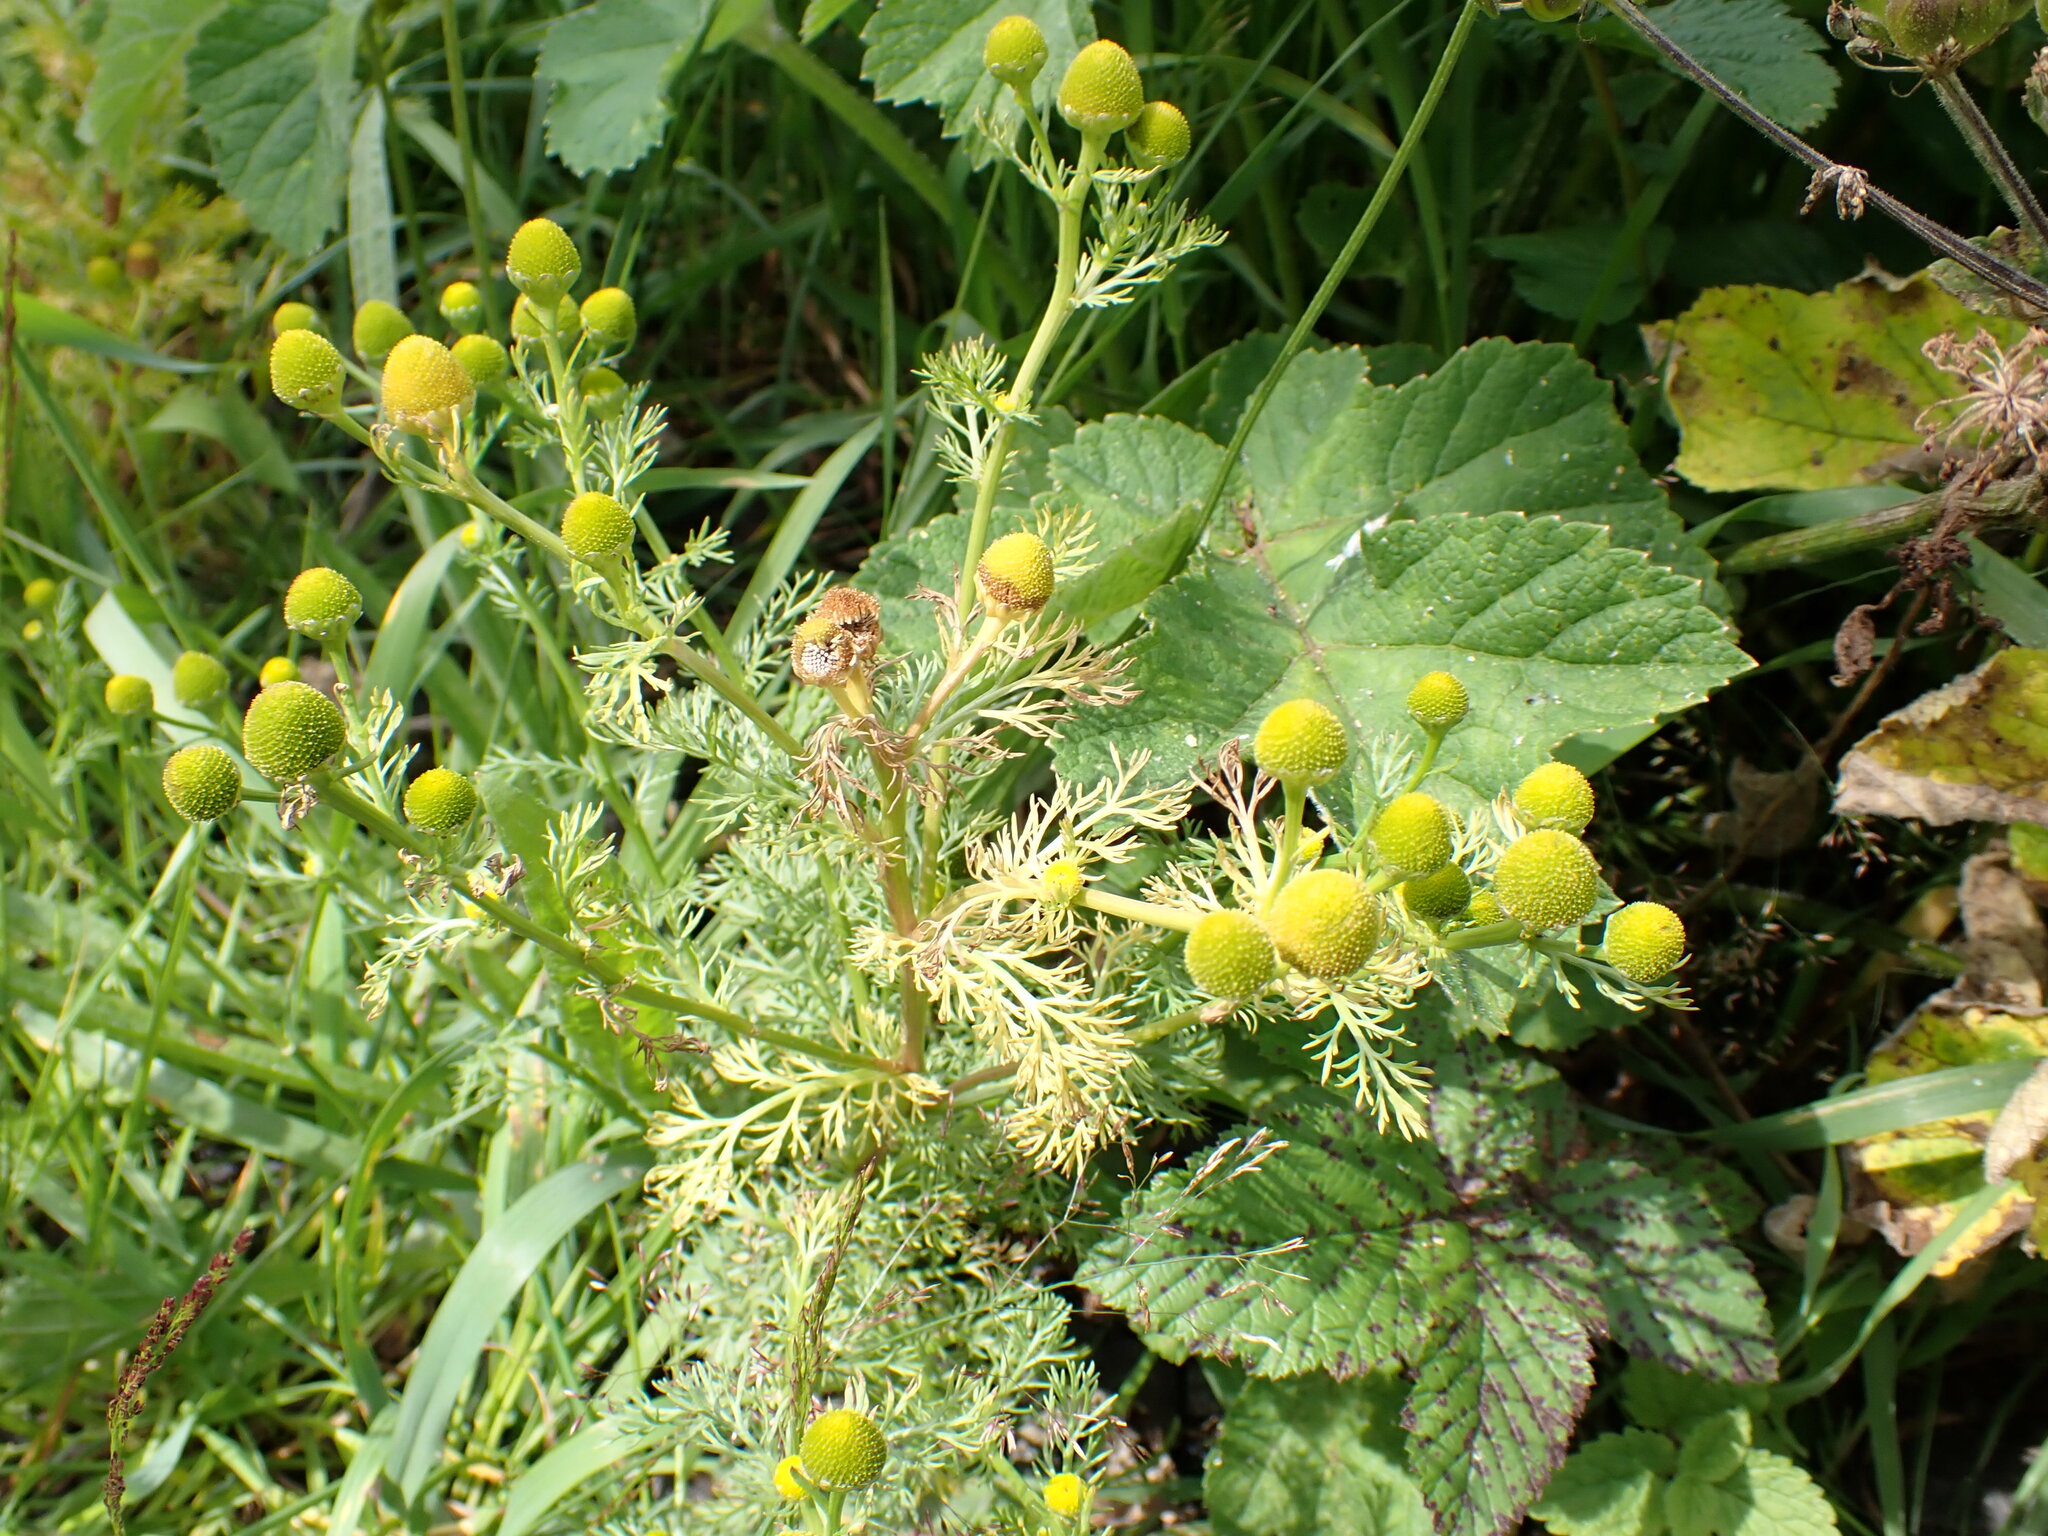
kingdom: Plantae
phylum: Tracheophyta
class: Magnoliopsida
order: Asterales
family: Asteraceae
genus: Matricaria
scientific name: Matricaria discoidea
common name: Disc mayweed
